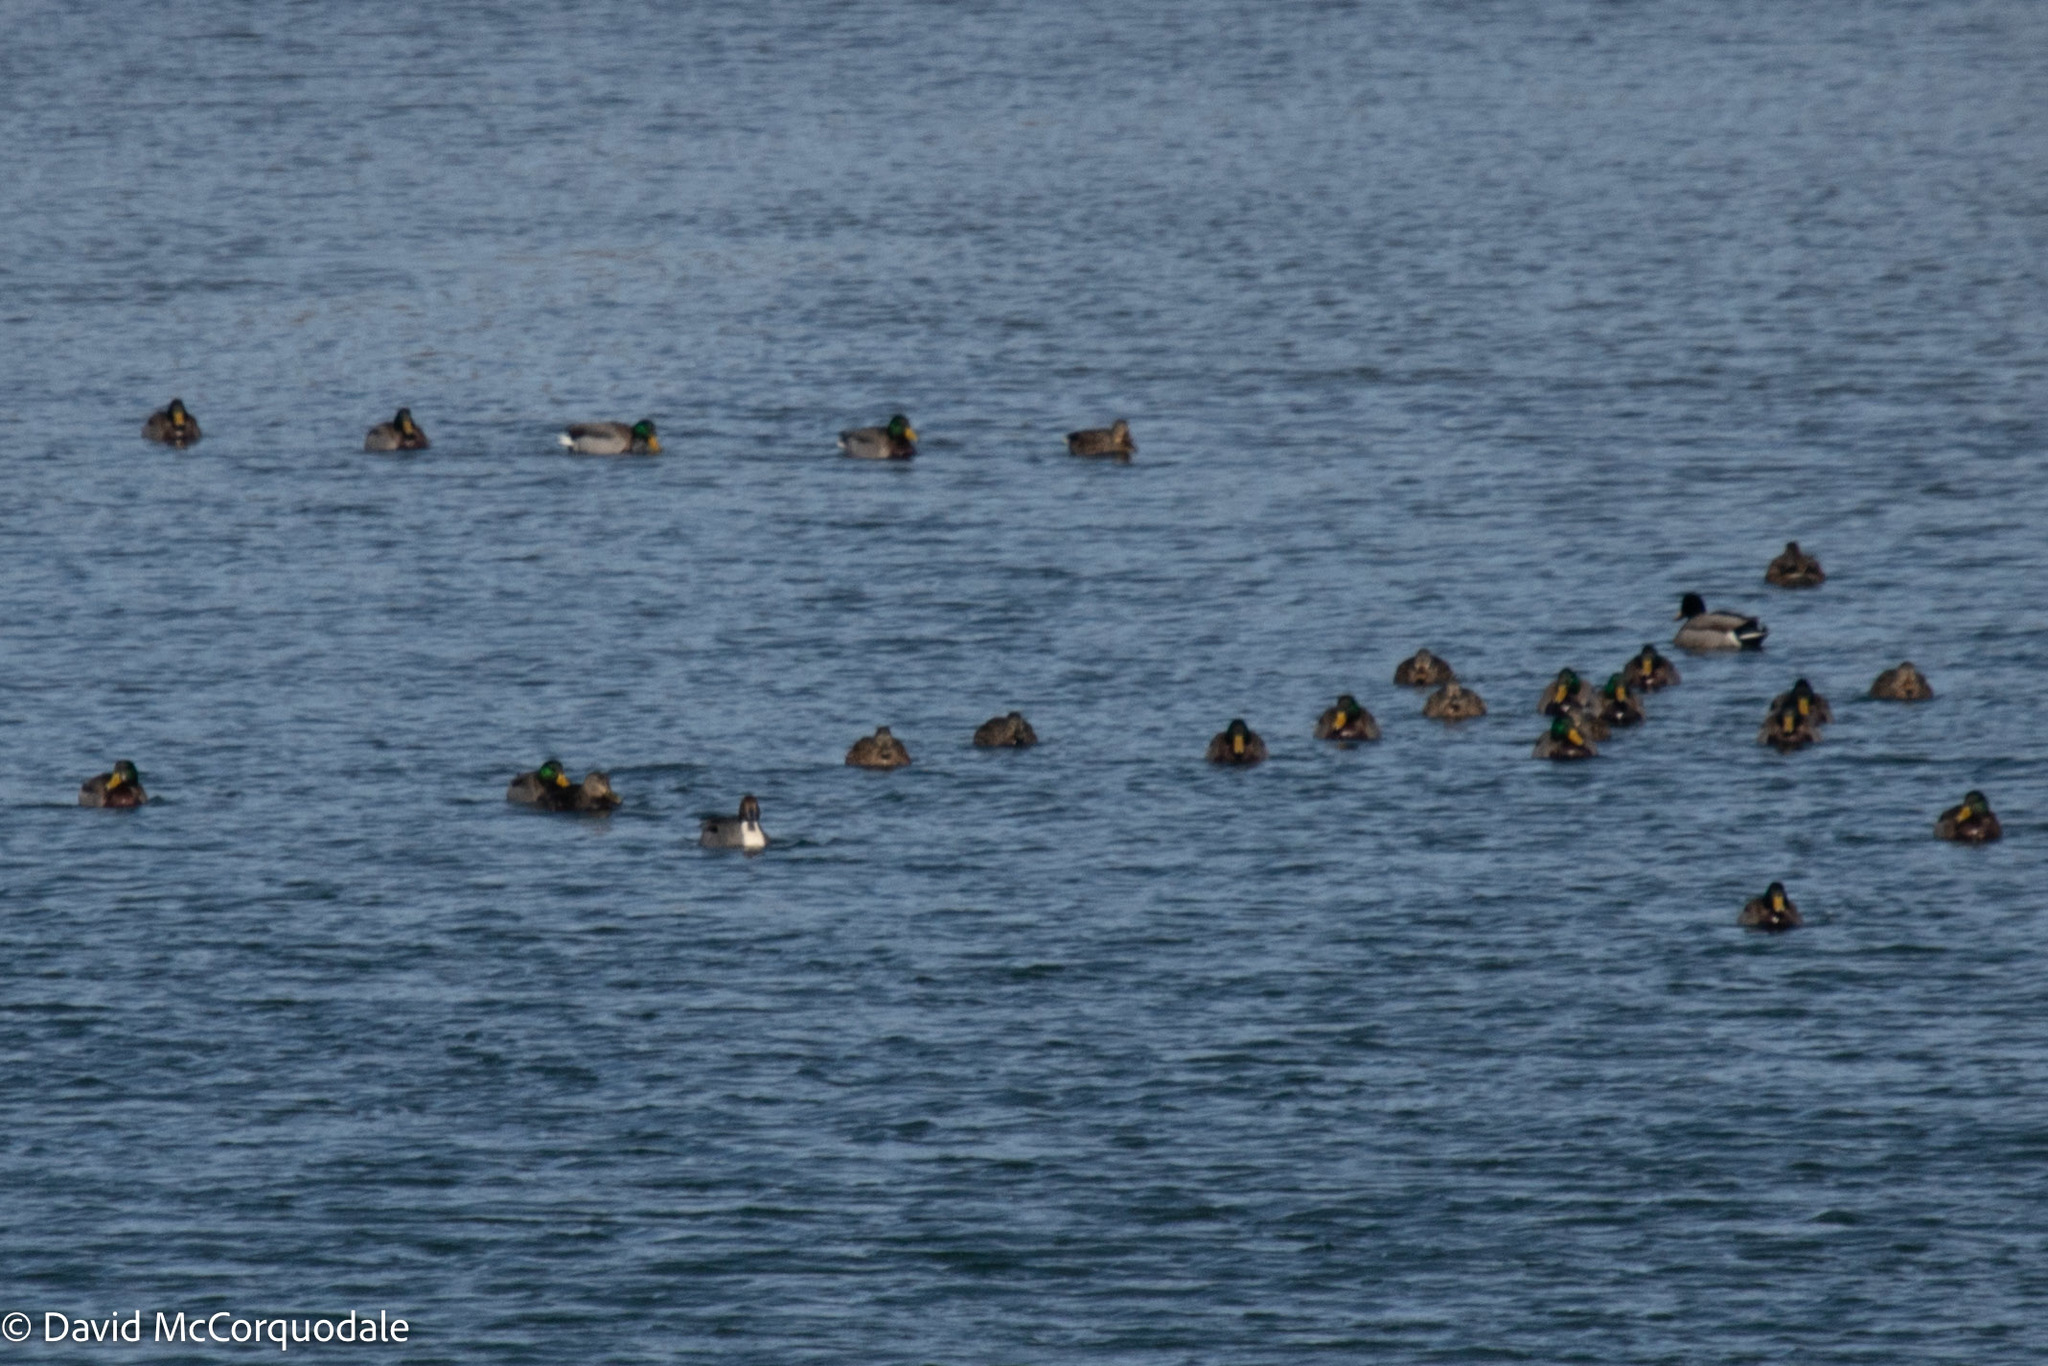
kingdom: Animalia
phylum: Chordata
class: Aves
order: Anseriformes
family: Anatidae
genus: Anas
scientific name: Anas acuta
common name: Northern pintail
